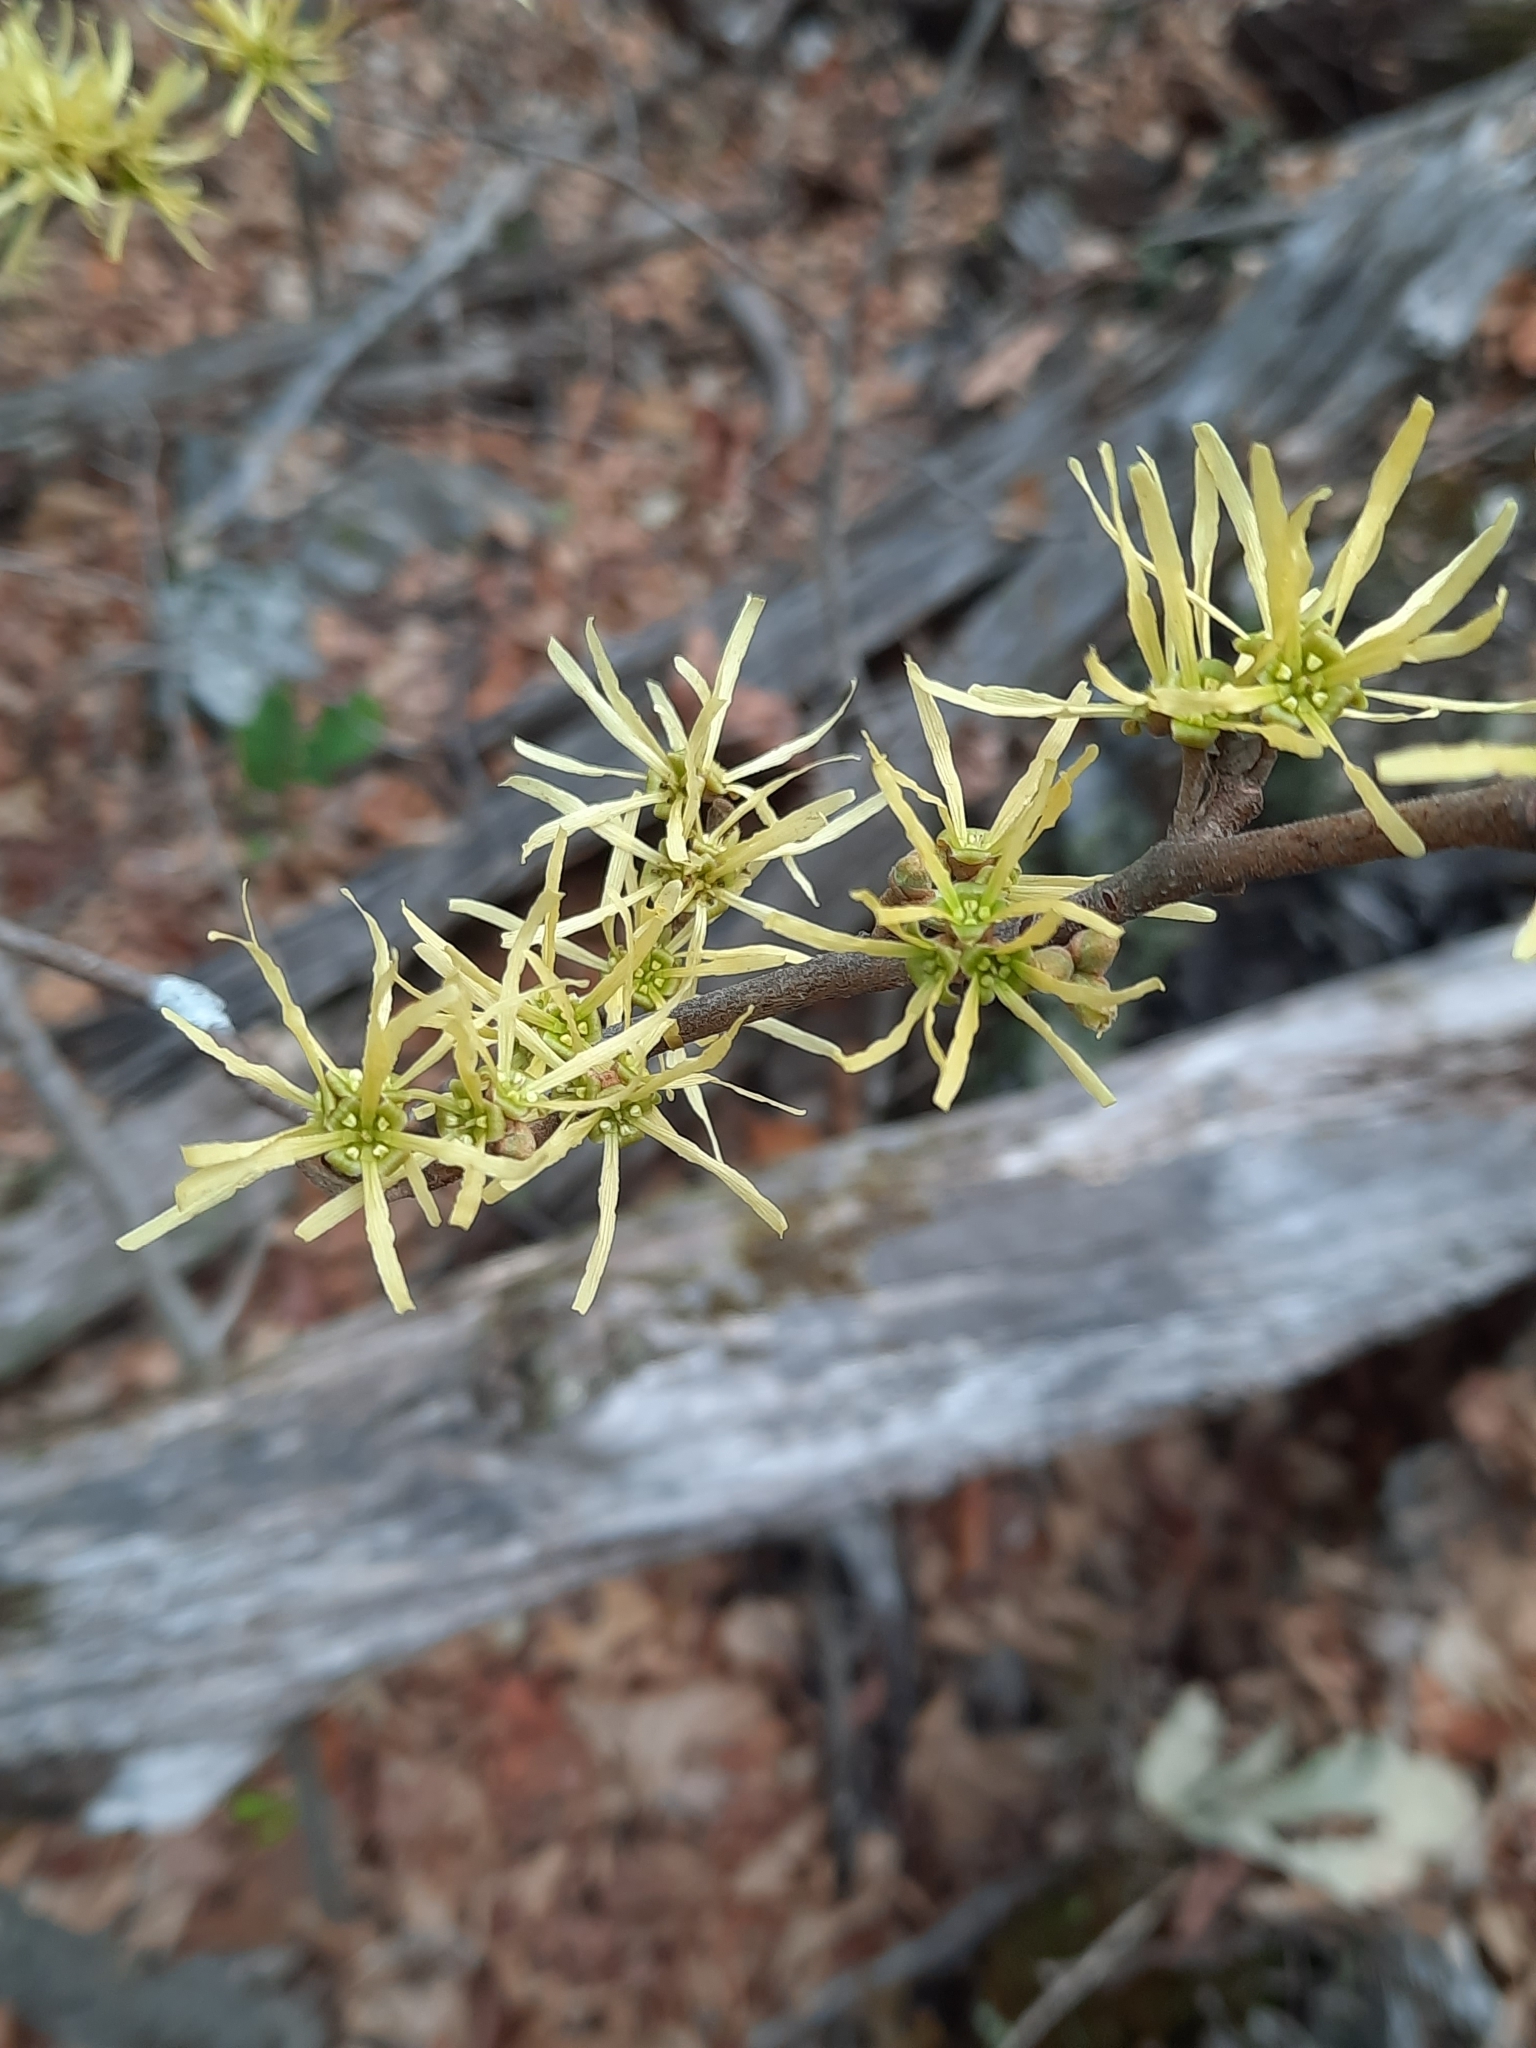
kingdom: Plantae
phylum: Tracheophyta
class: Magnoliopsida
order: Saxifragales
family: Hamamelidaceae
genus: Hamamelis
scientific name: Hamamelis virginiana
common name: Witch-hazel
